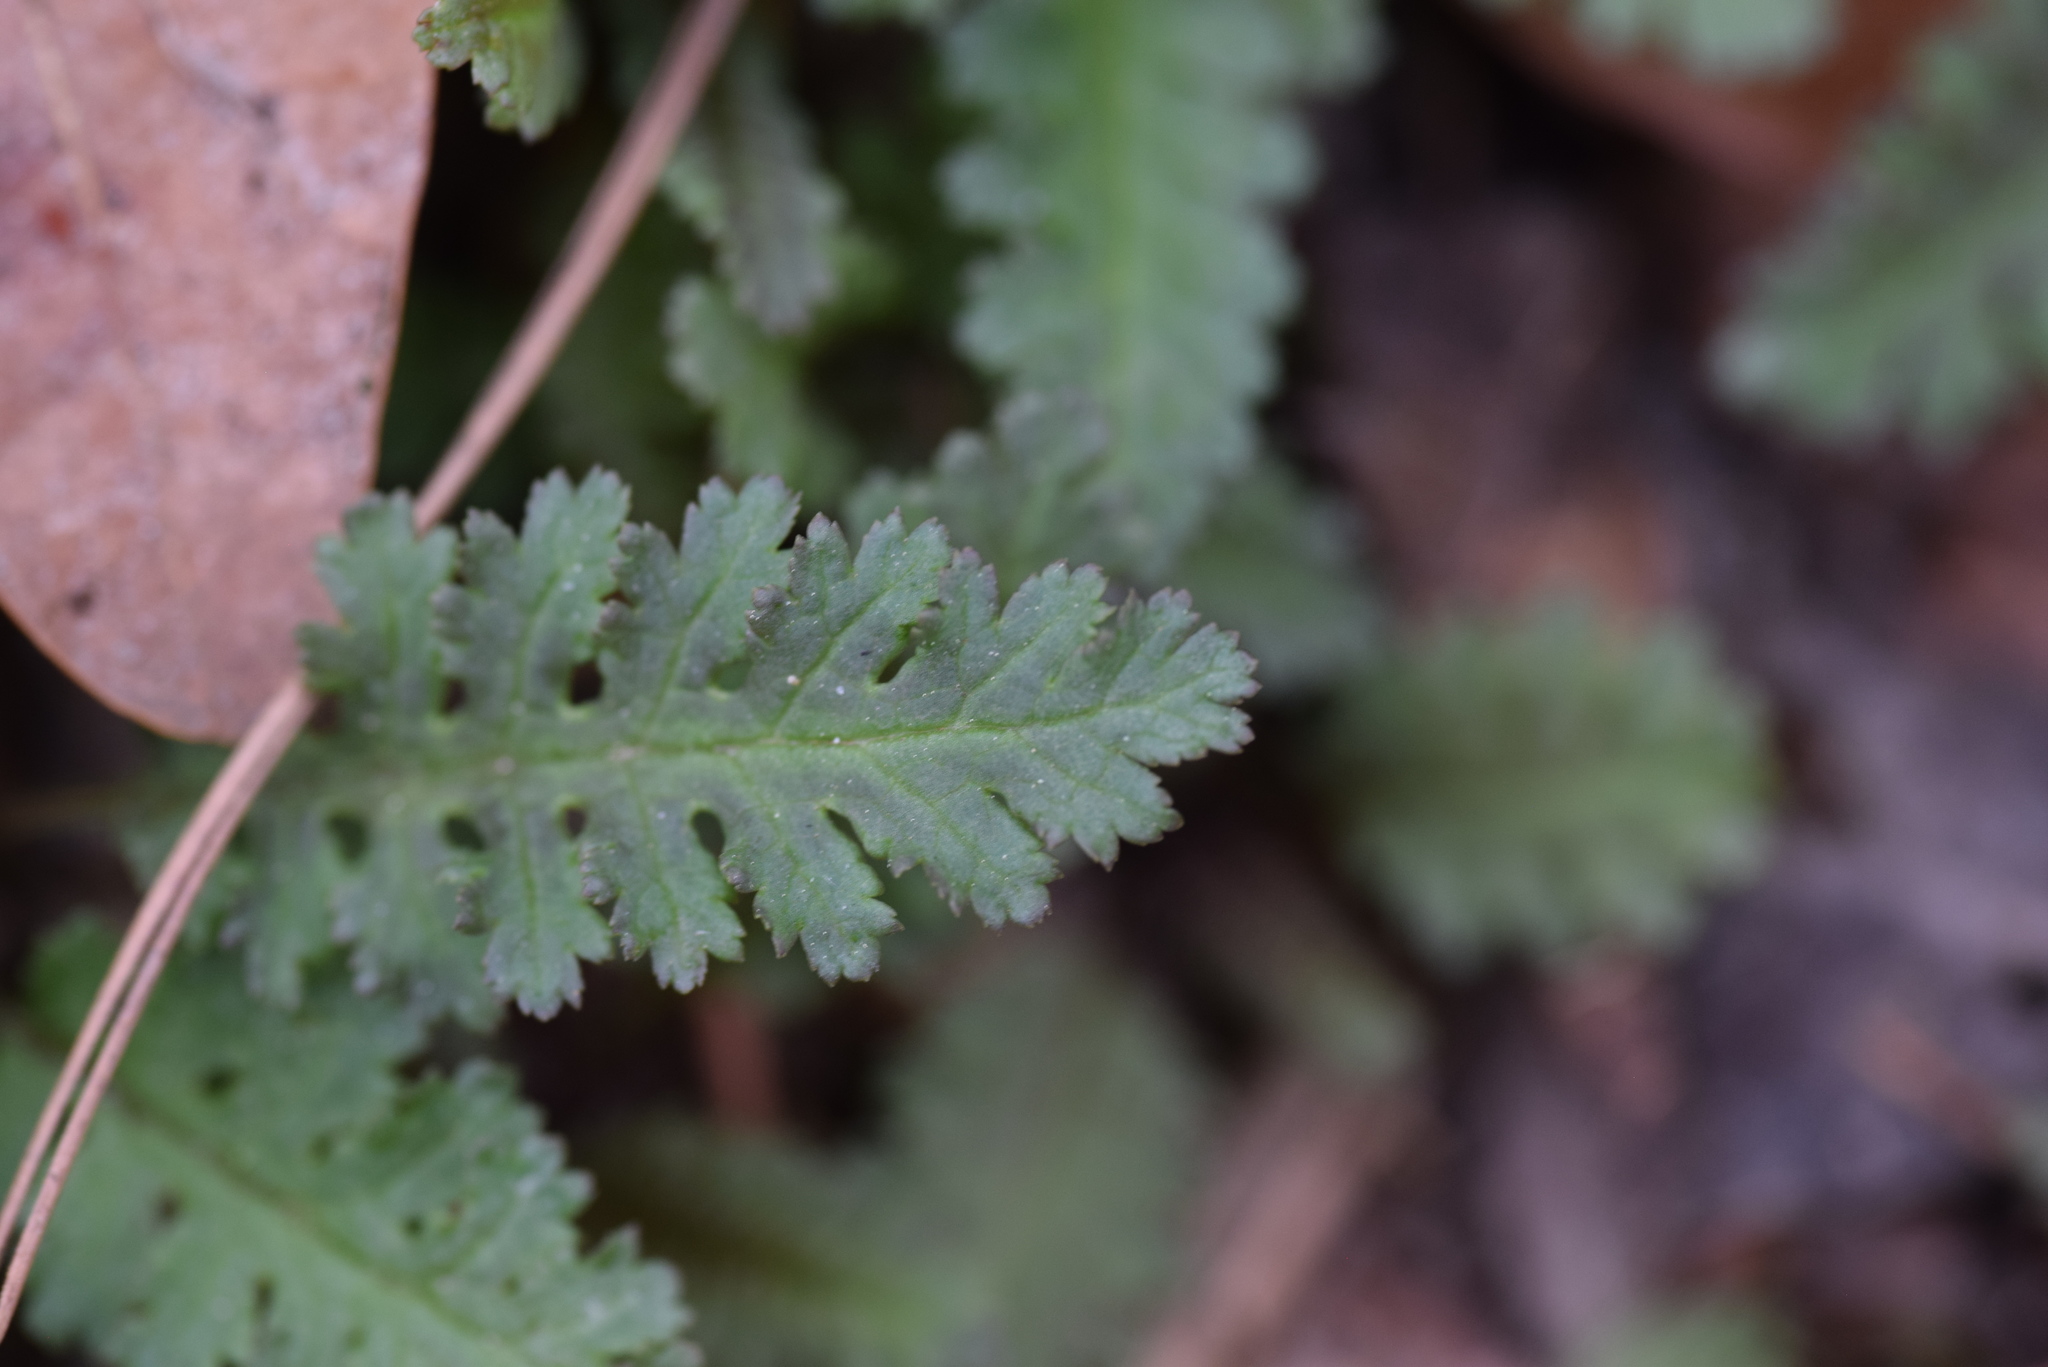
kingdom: Plantae
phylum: Tracheophyta
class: Magnoliopsida
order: Lamiales
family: Orobanchaceae
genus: Pedicularis
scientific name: Pedicularis canadensis
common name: Early lousewort
